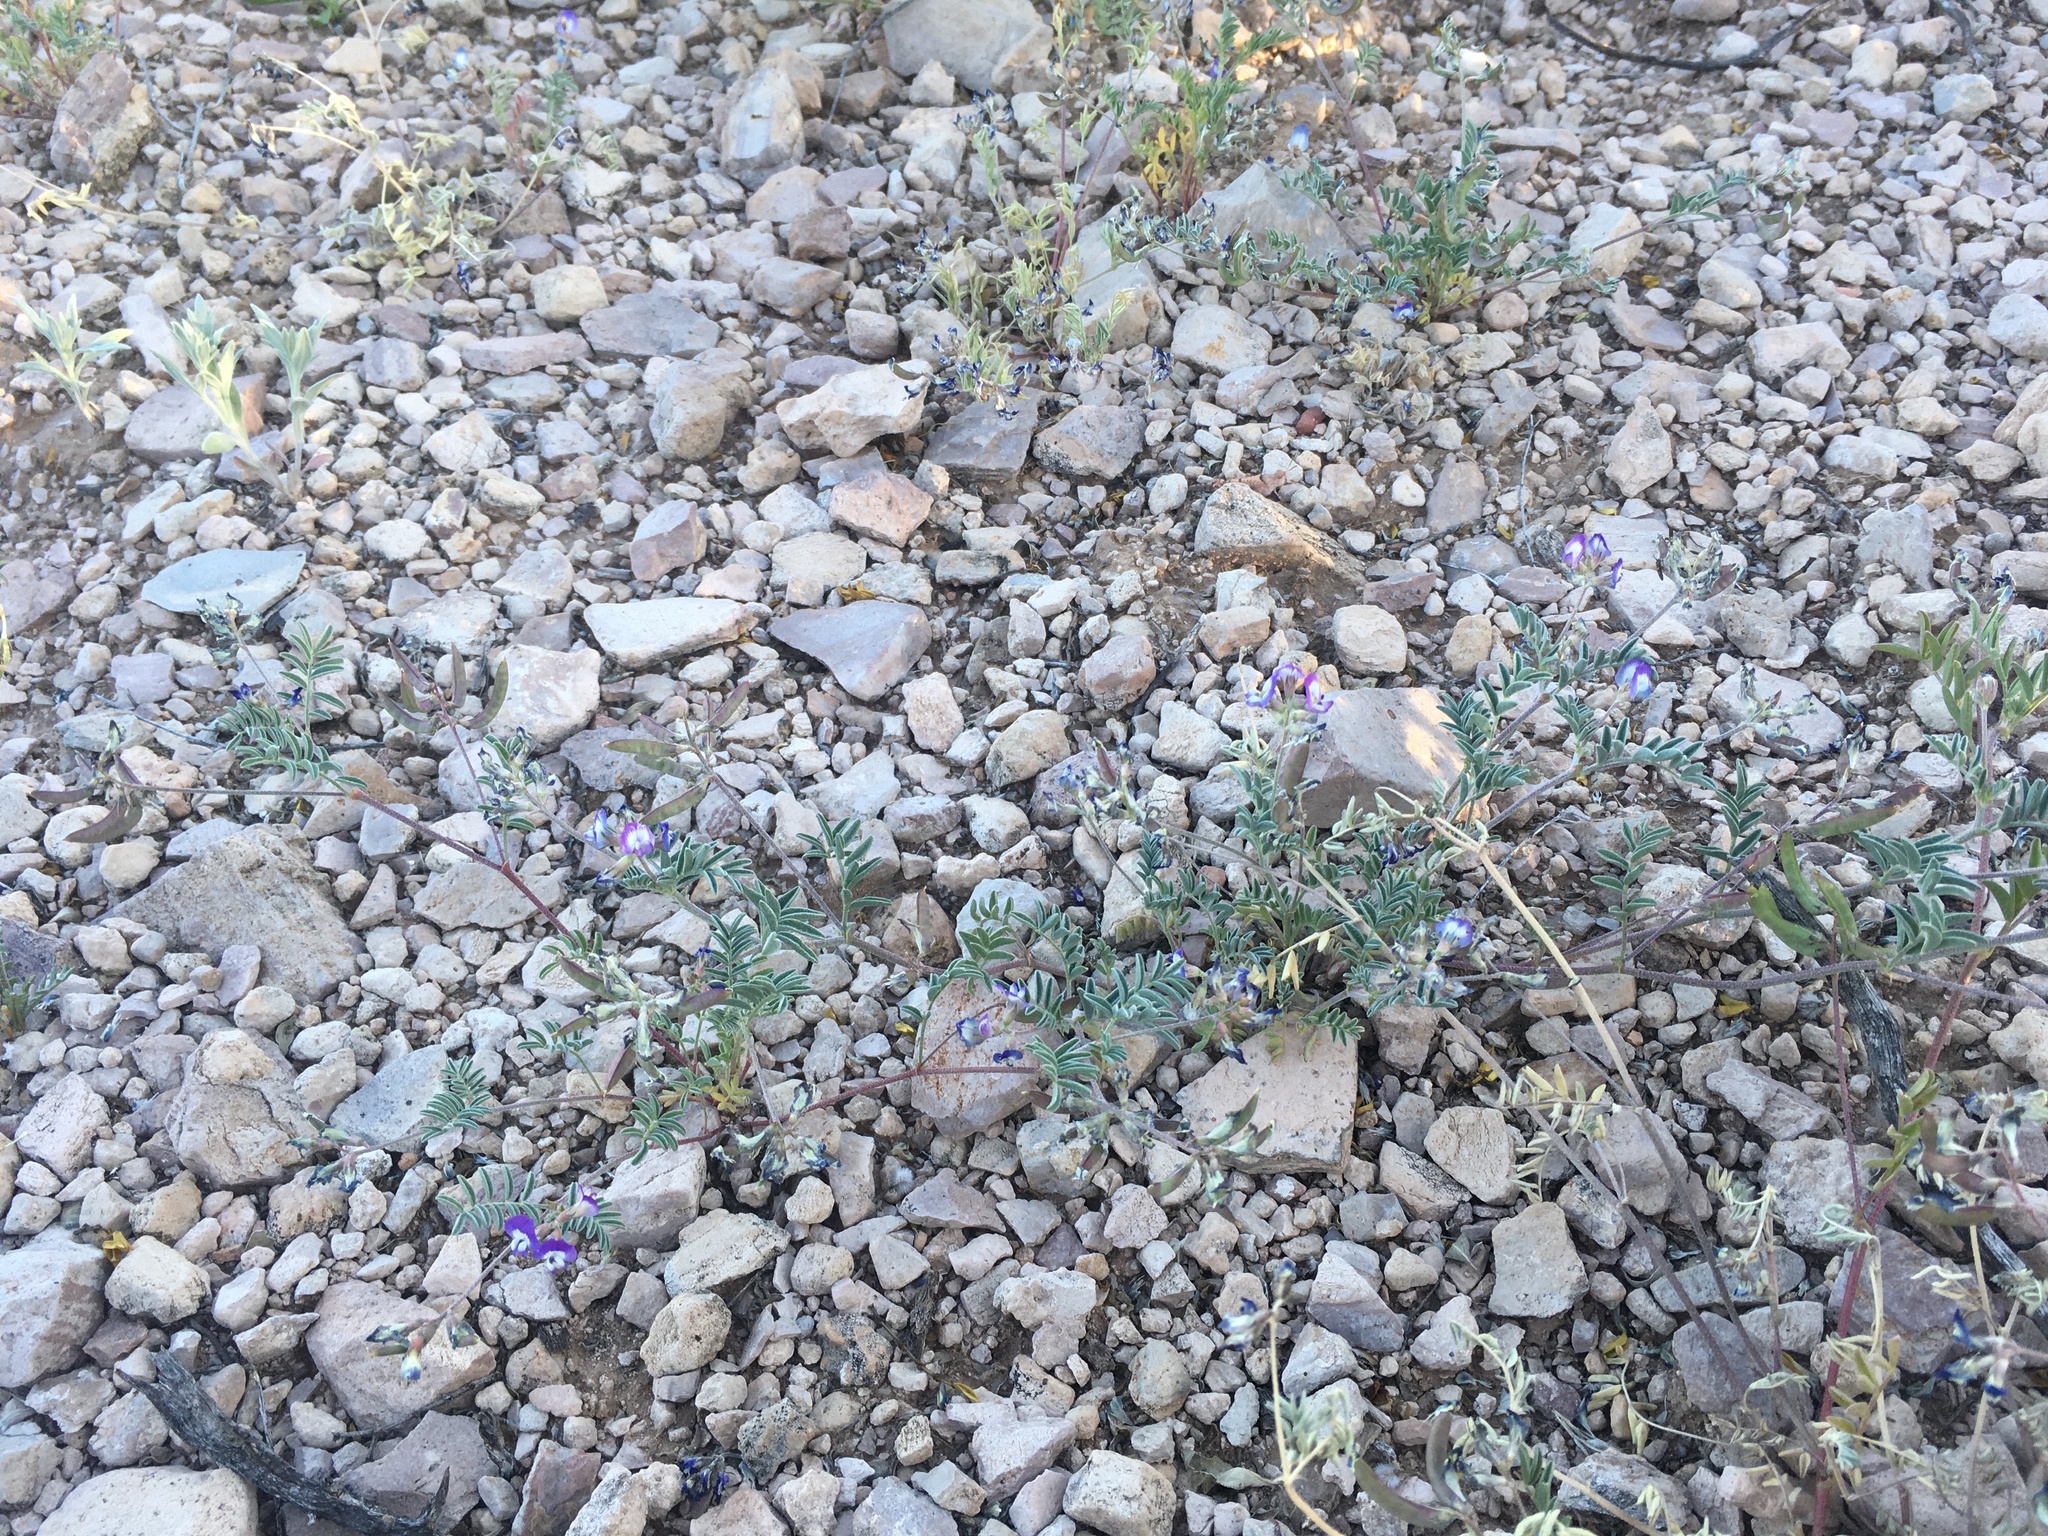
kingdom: Plantae
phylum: Tracheophyta
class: Magnoliopsida
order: Fabales
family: Fabaceae
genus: Astragalus
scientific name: Astragalus emoryanus
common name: Emory's milk-vetch
